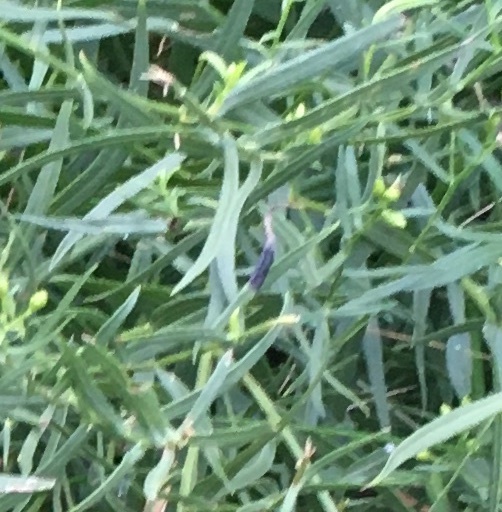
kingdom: Animalia
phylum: Arthropoda
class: Insecta
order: Diptera
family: Cecidomyiidae
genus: Asteromyia
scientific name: Asteromyia euthamiae
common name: Euthamia leaf gall midge
